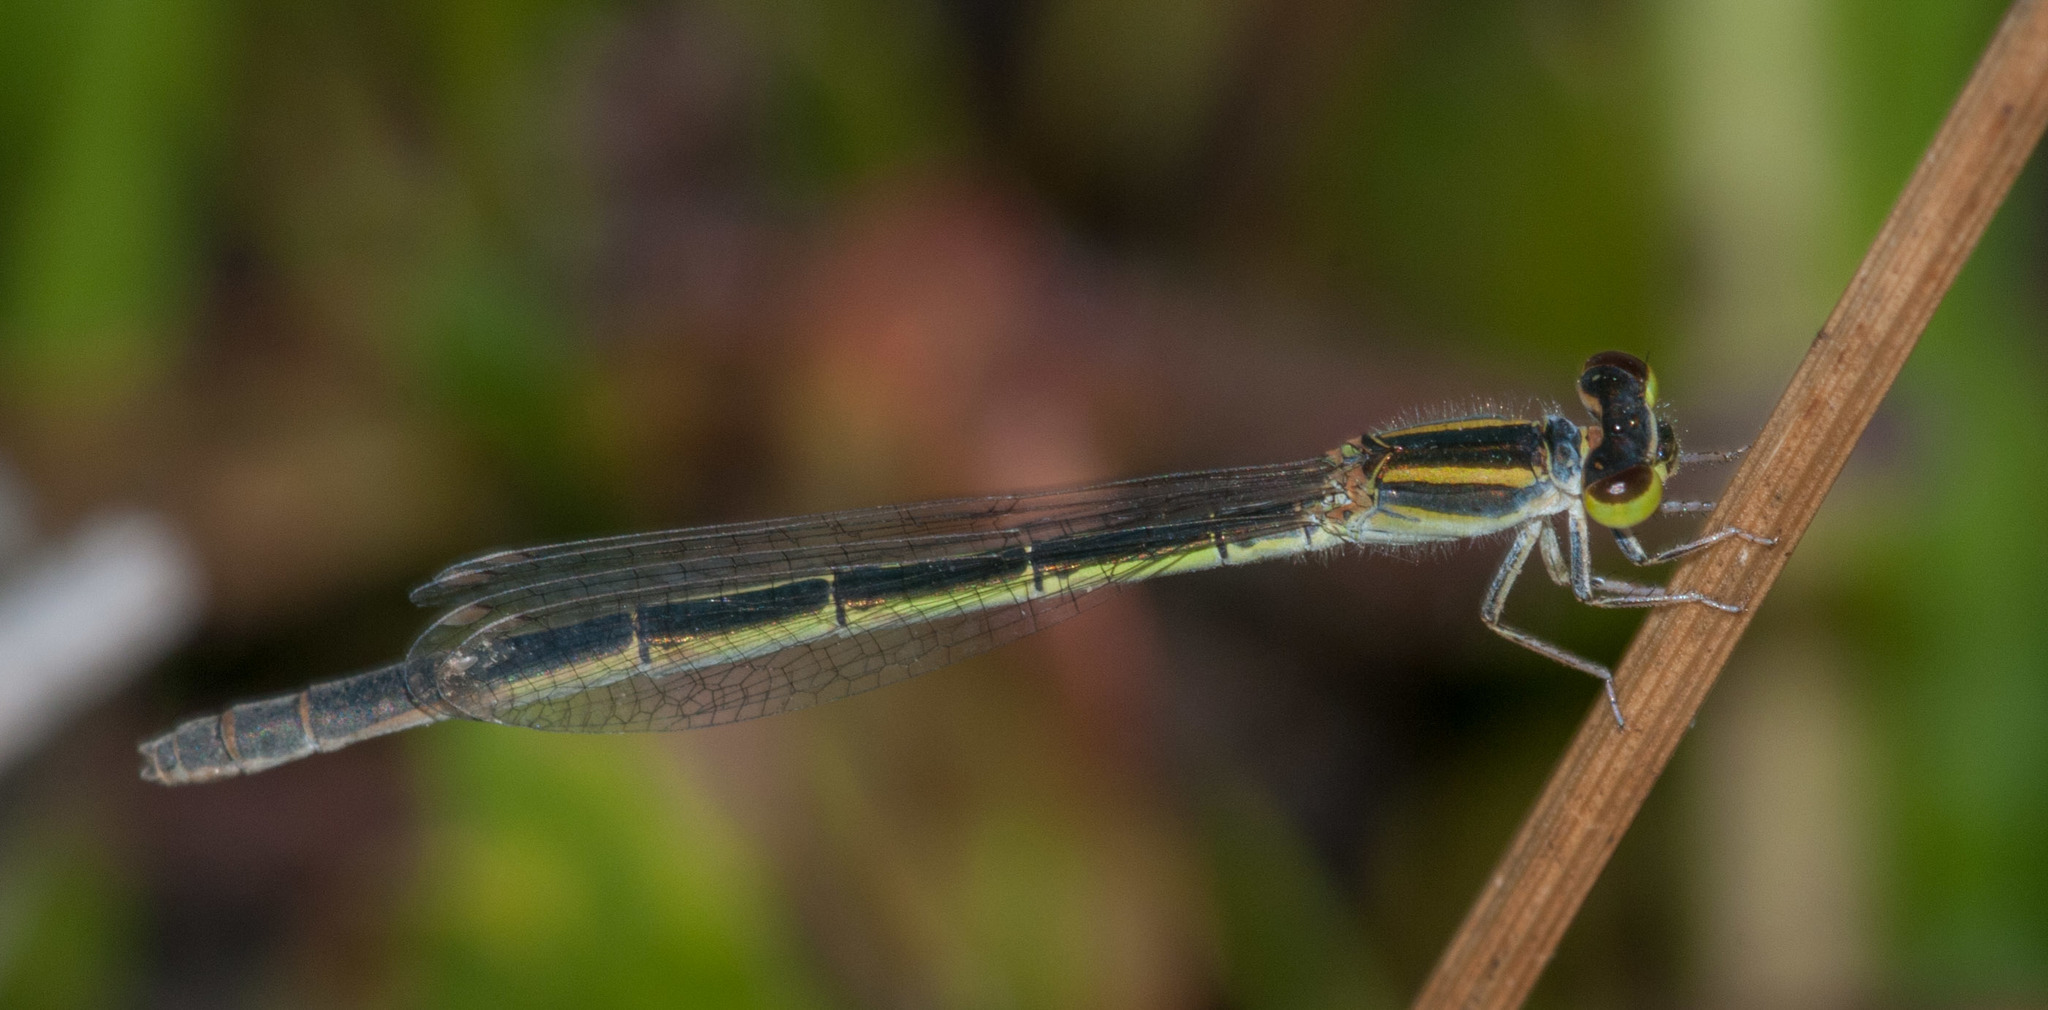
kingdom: Animalia
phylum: Arthropoda
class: Insecta
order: Odonata
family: Coenagrionidae
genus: Ischnura
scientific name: Ischnura aurora
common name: Gossamer damselfly
